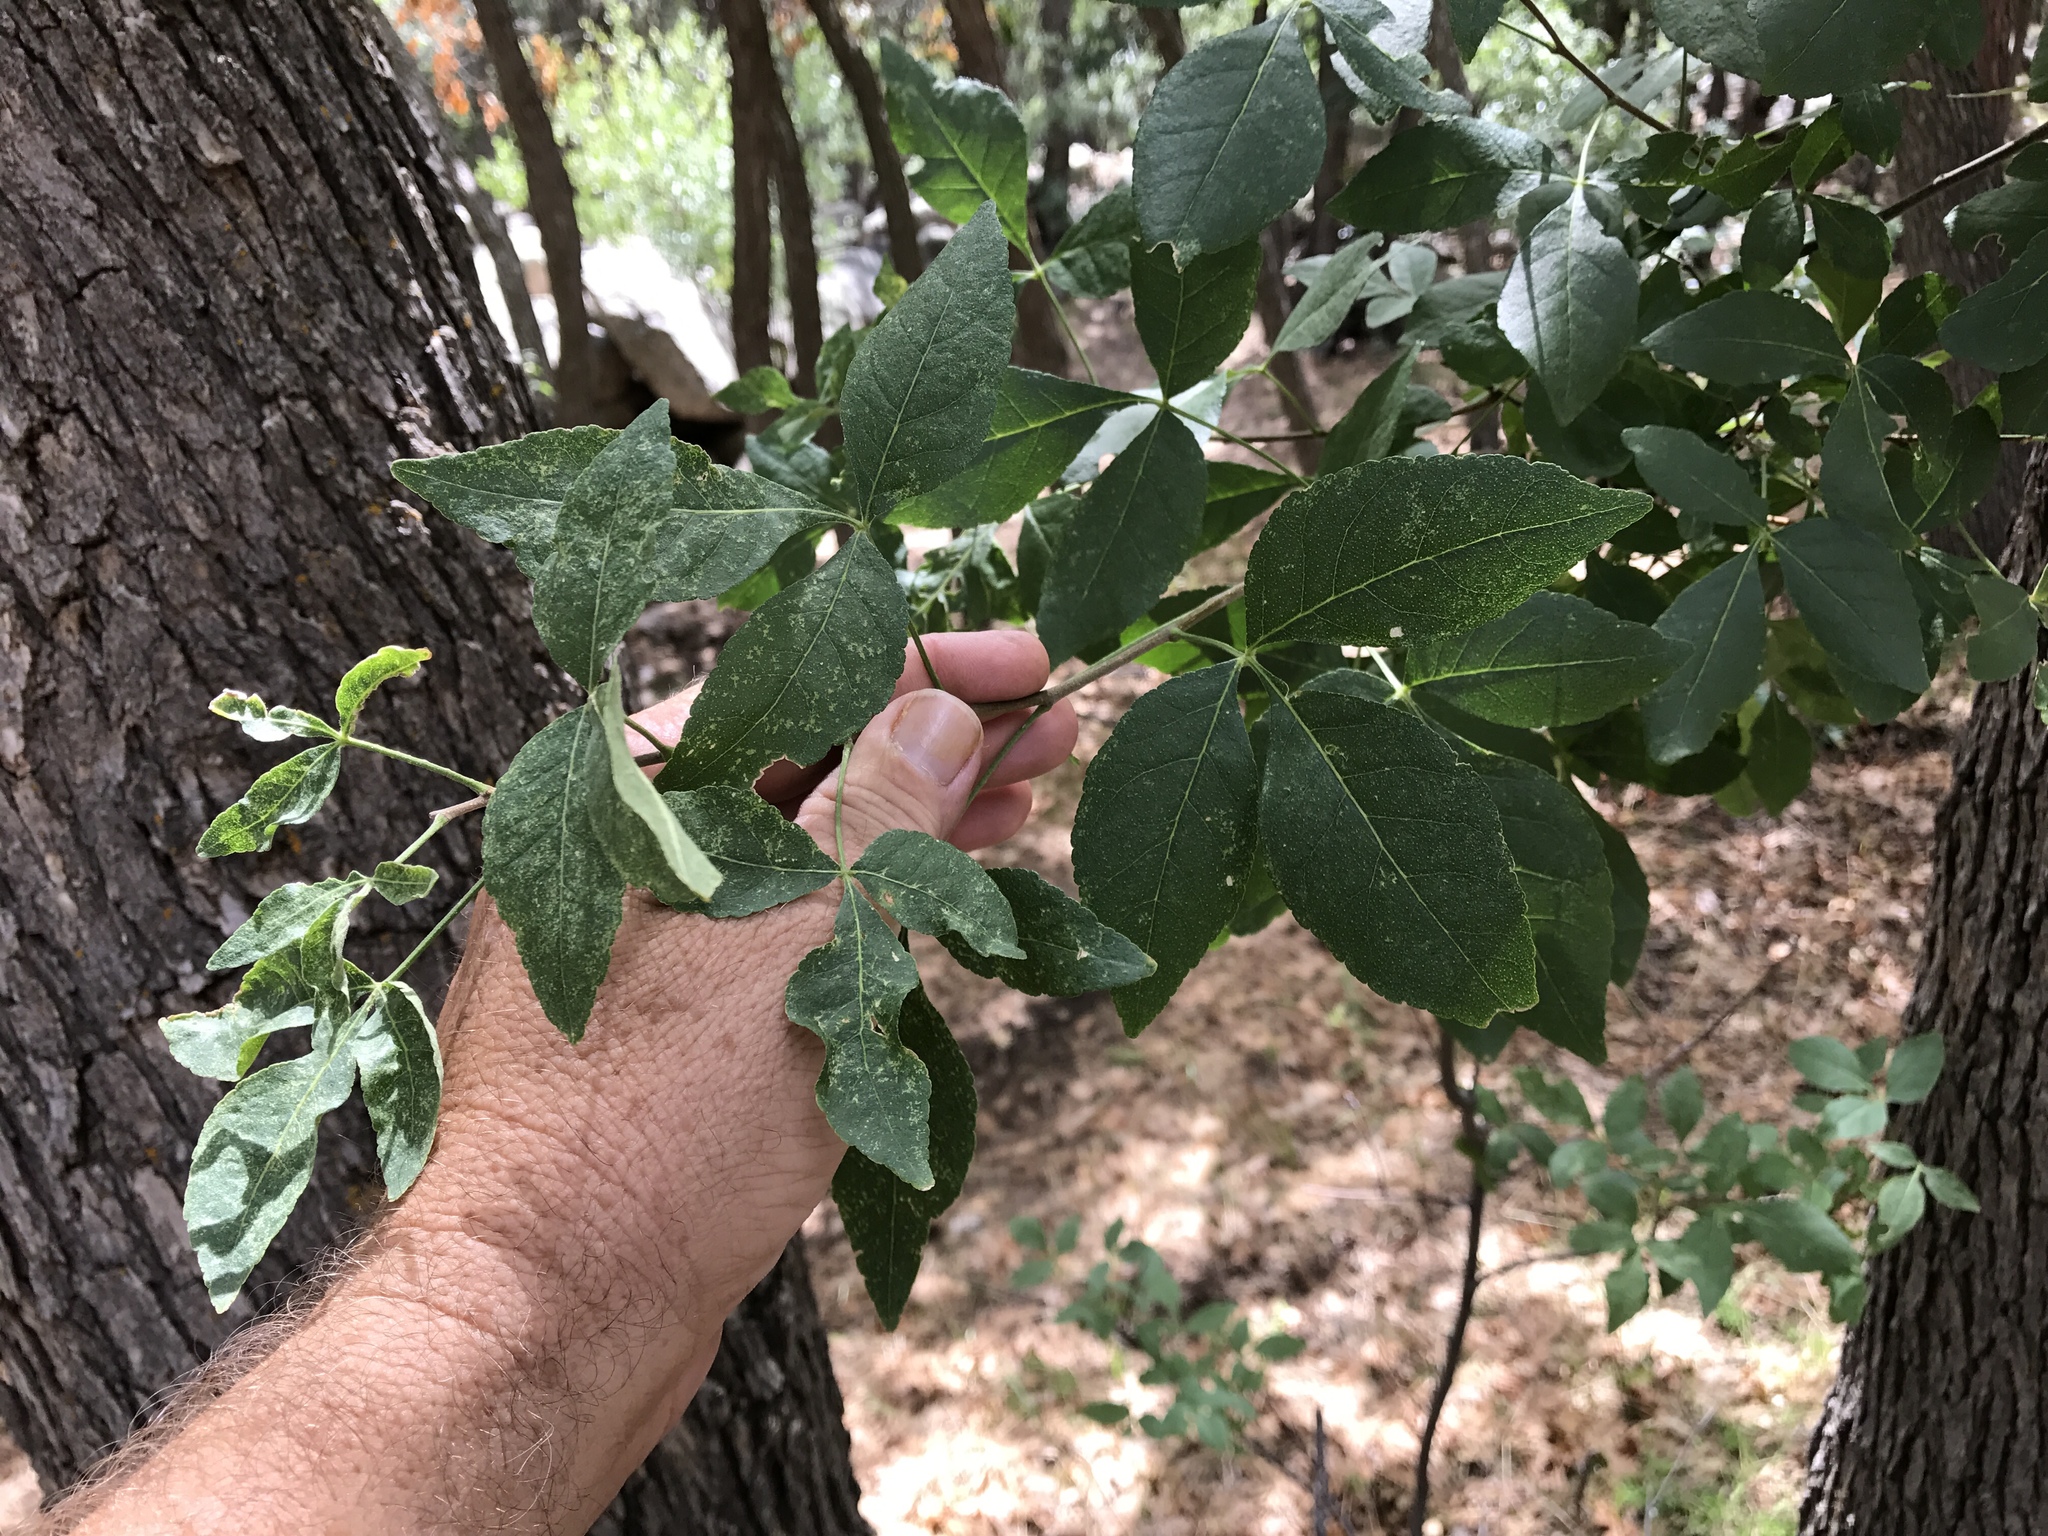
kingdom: Plantae
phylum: Tracheophyta
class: Magnoliopsida
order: Sapindales
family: Rutaceae
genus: Ptelea
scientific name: Ptelea trifoliata
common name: Common hop-tree
